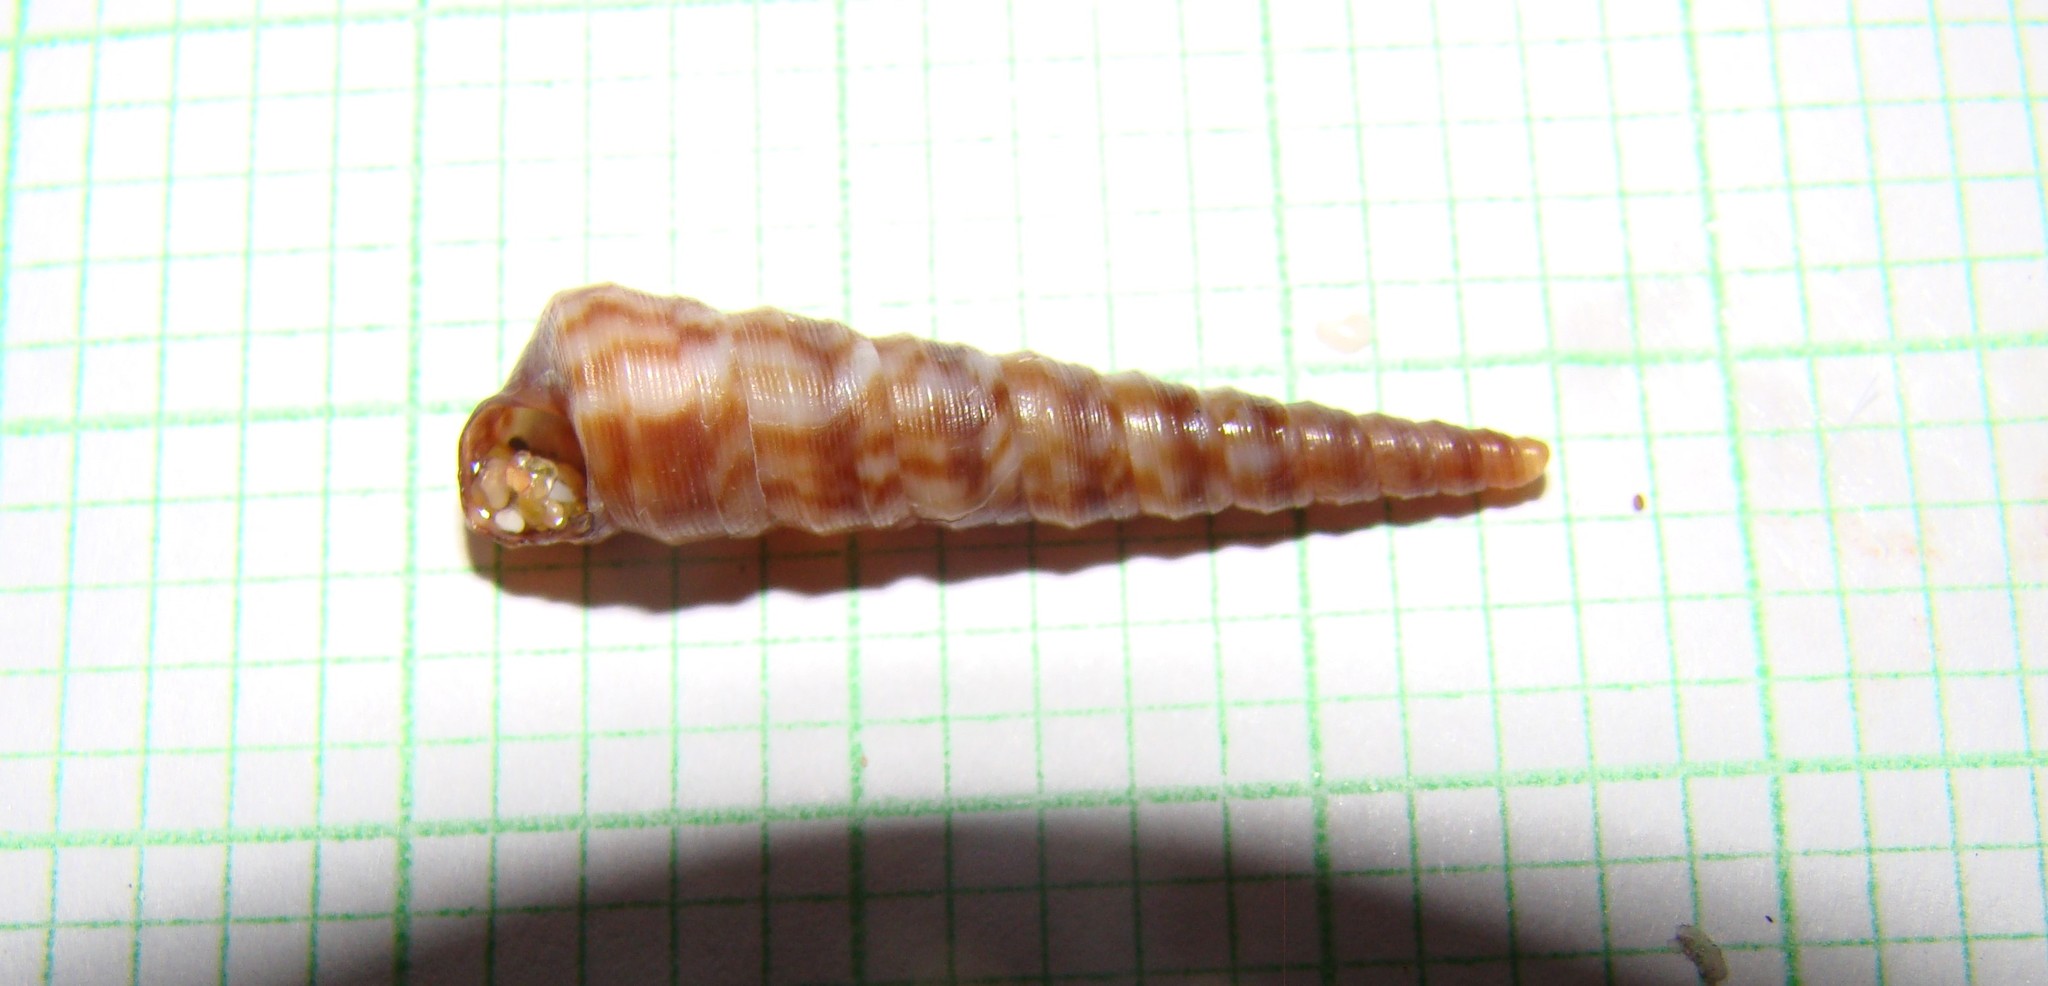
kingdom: Animalia
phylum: Mollusca
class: Gastropoda
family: Turritellidae
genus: Stiracolpus
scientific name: Stiracolpus pagoda
